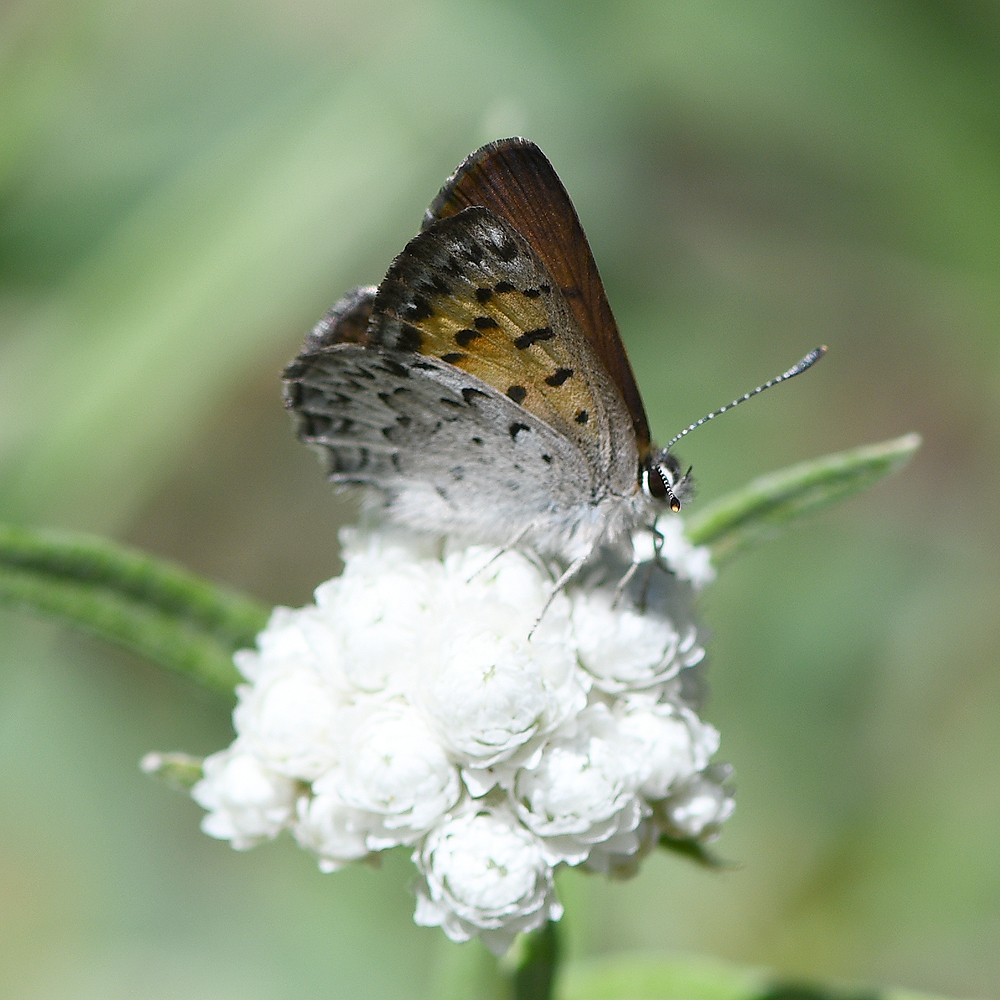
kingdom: Animalia
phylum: Arthropoda
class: Insecta
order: Lepidoptera
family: Lycaenidae
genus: Tharsalea
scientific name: Tharsalea mariposa
